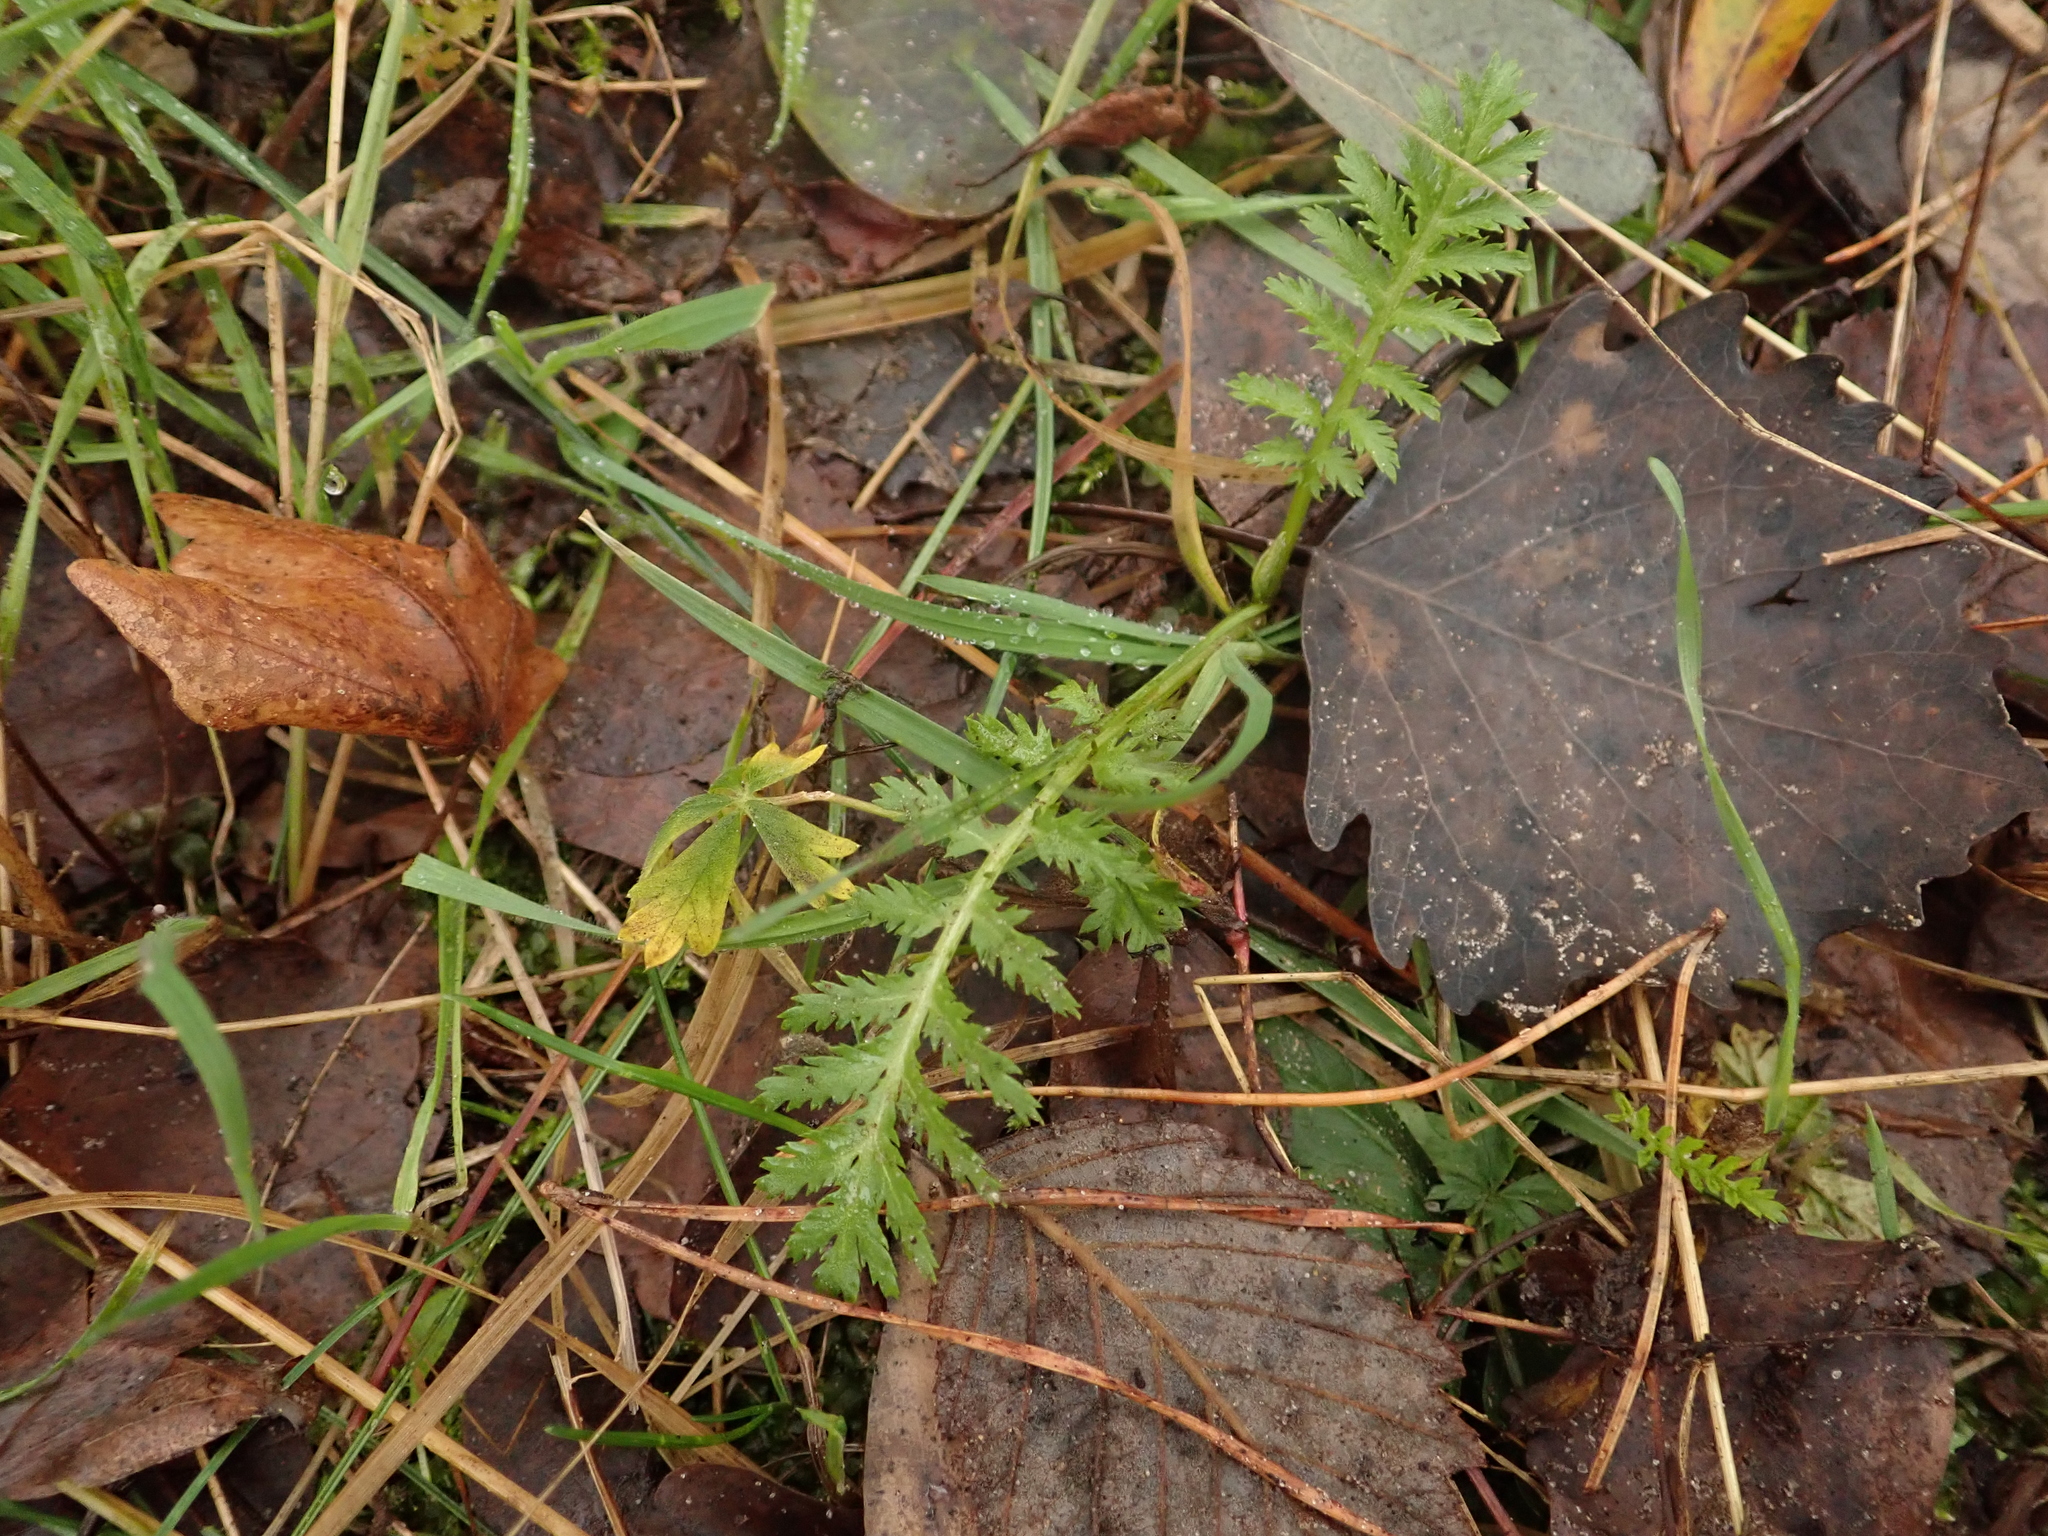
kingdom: Plantae
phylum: Tracheophyta
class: Magnoliopsida
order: Asterales
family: Asteraceae
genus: Tanacetum
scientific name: Tanacetum vulgare
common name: Common tansy
